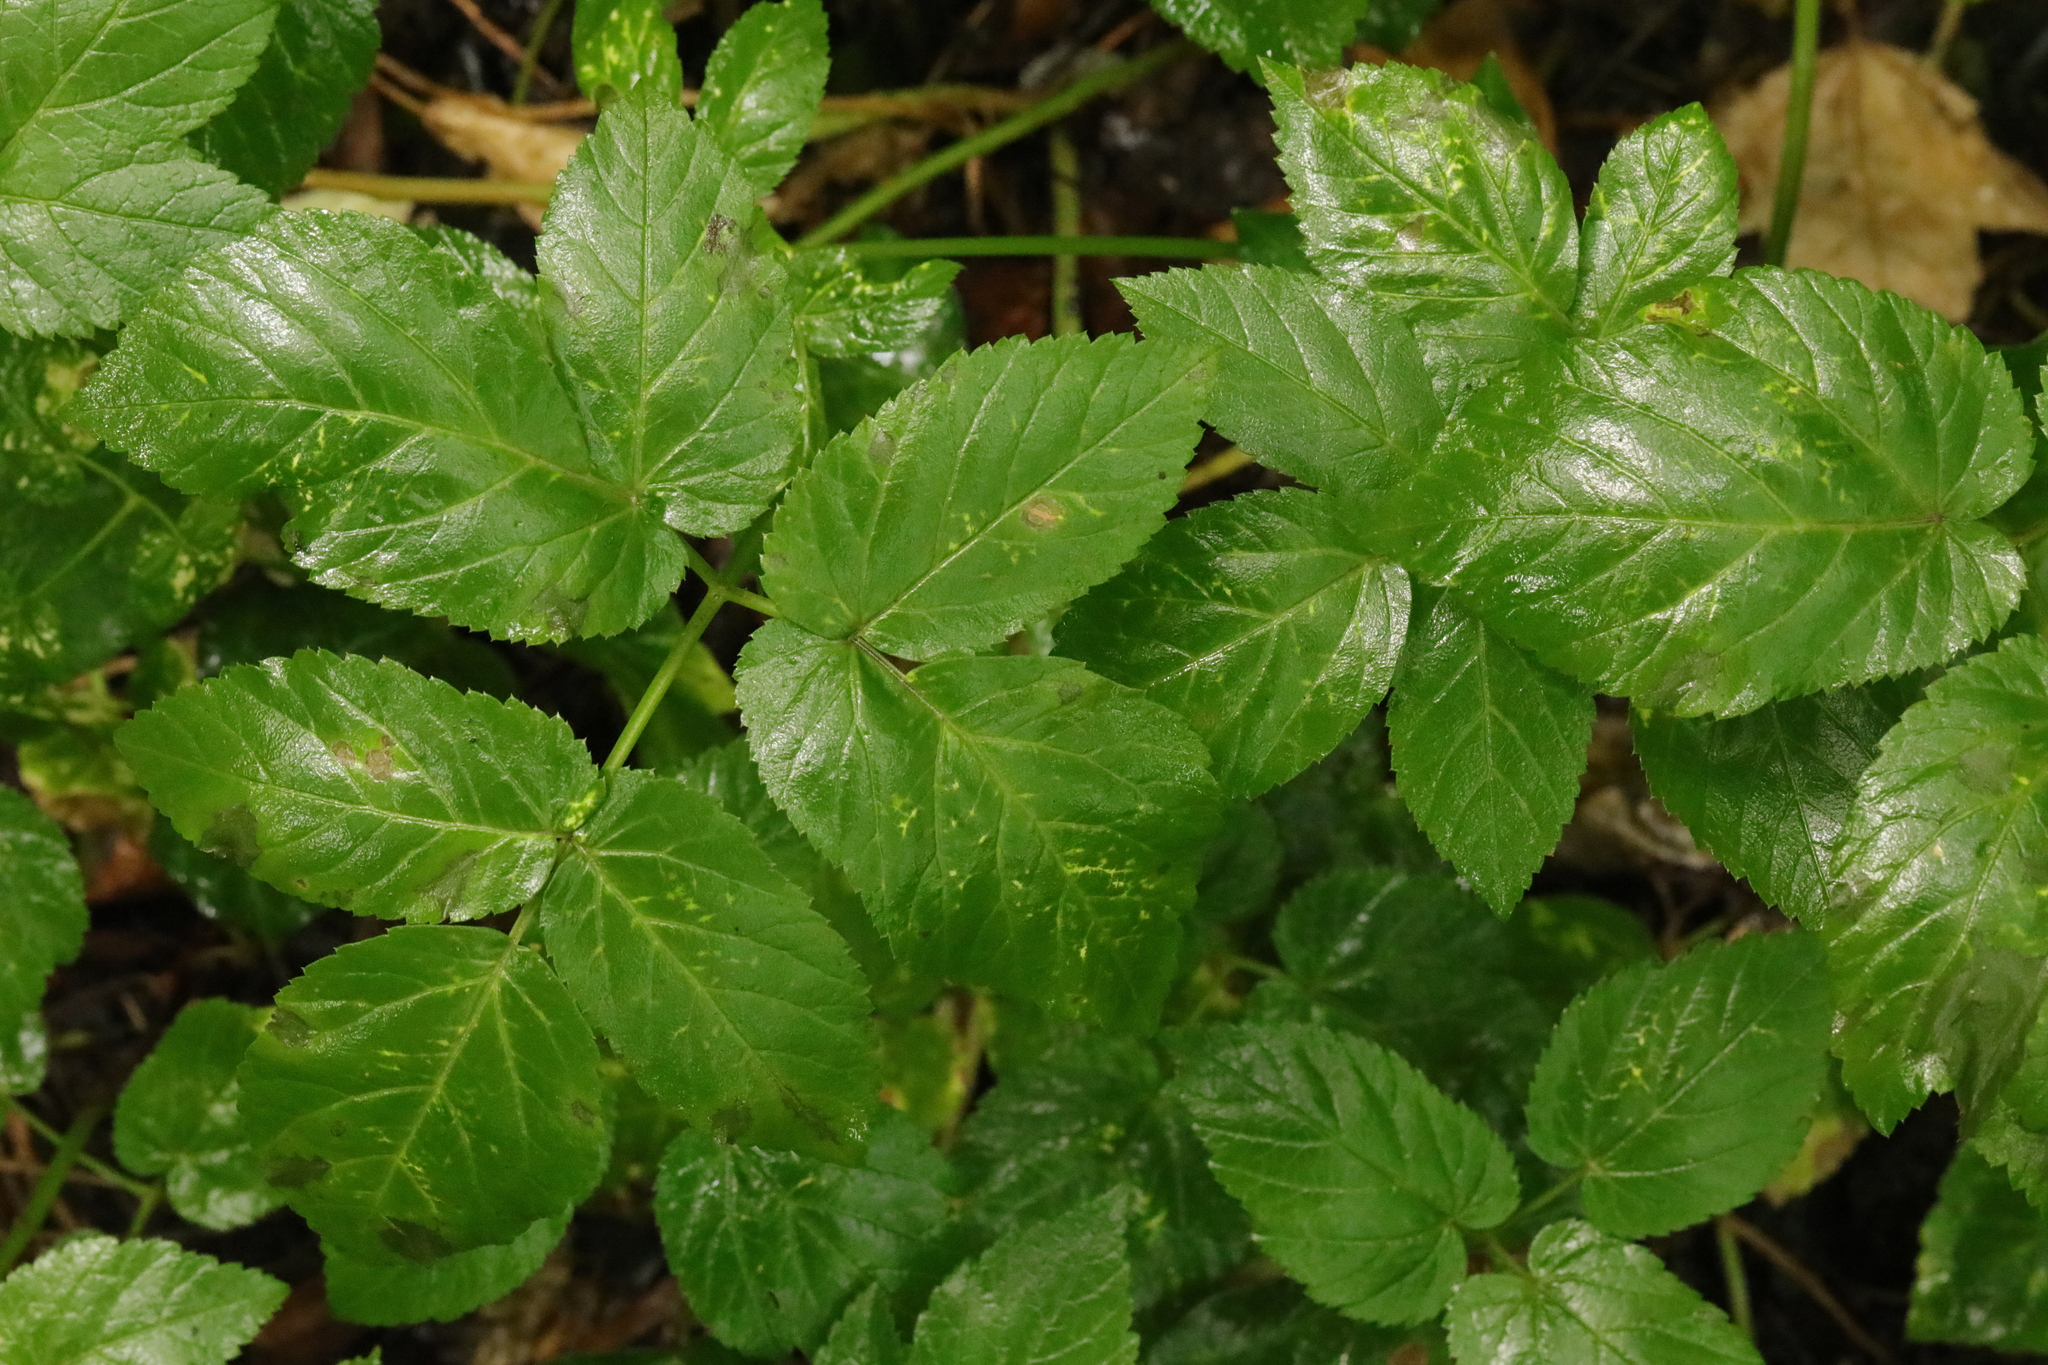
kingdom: Plantae
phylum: Tracheophyta
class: Magnoliopsida
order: Apiales
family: Apiaceae
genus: Aegopodium
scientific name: Aegopodium podagraria
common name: Ground-elder
